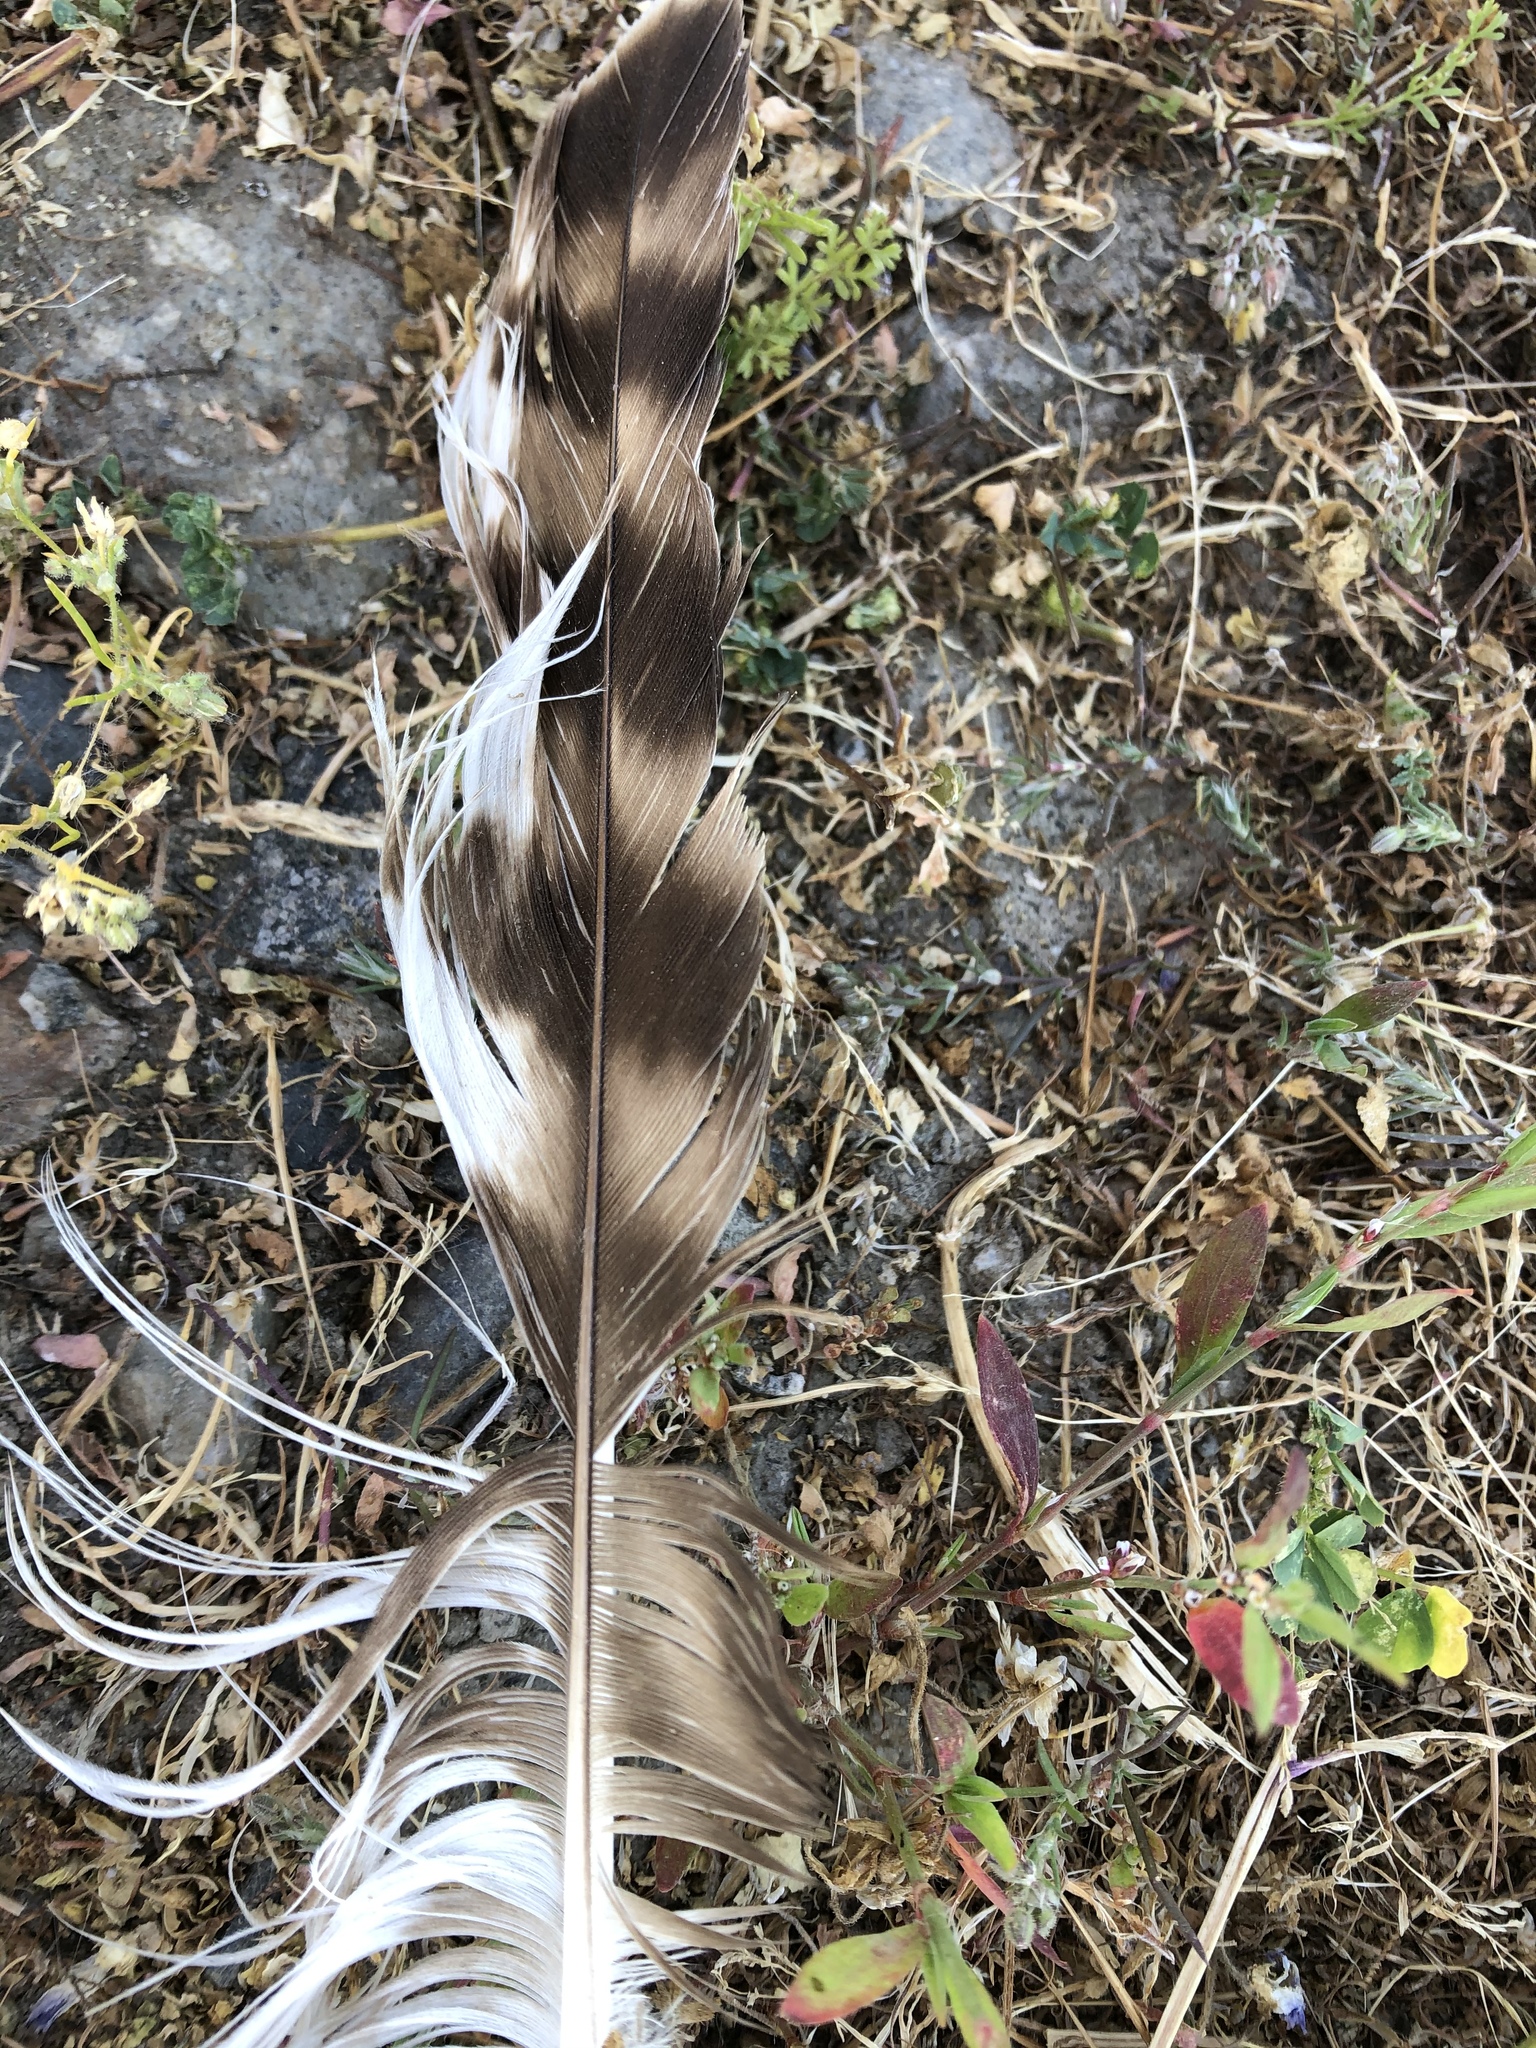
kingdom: Animalia
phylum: Chordata
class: Aves
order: Accipitriformes
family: Accipitridae
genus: Buteo
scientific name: Buteo jamaicensis
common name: Red-tailed hawk
